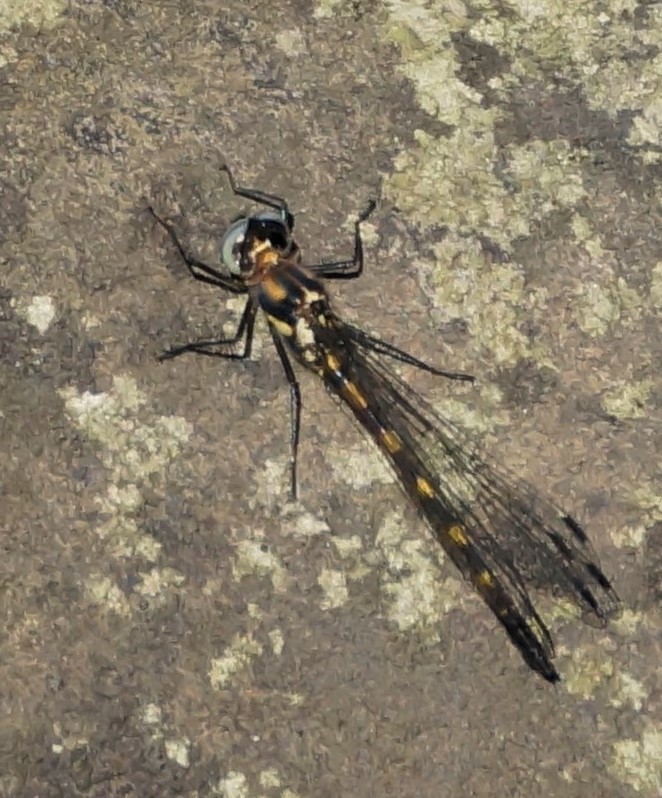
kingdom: Animalia
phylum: Arthropoda
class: Insecta
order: Odonata
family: Corduliidae
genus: Cordulephya
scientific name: Cordulephya pygmaea
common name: Common shutwing
